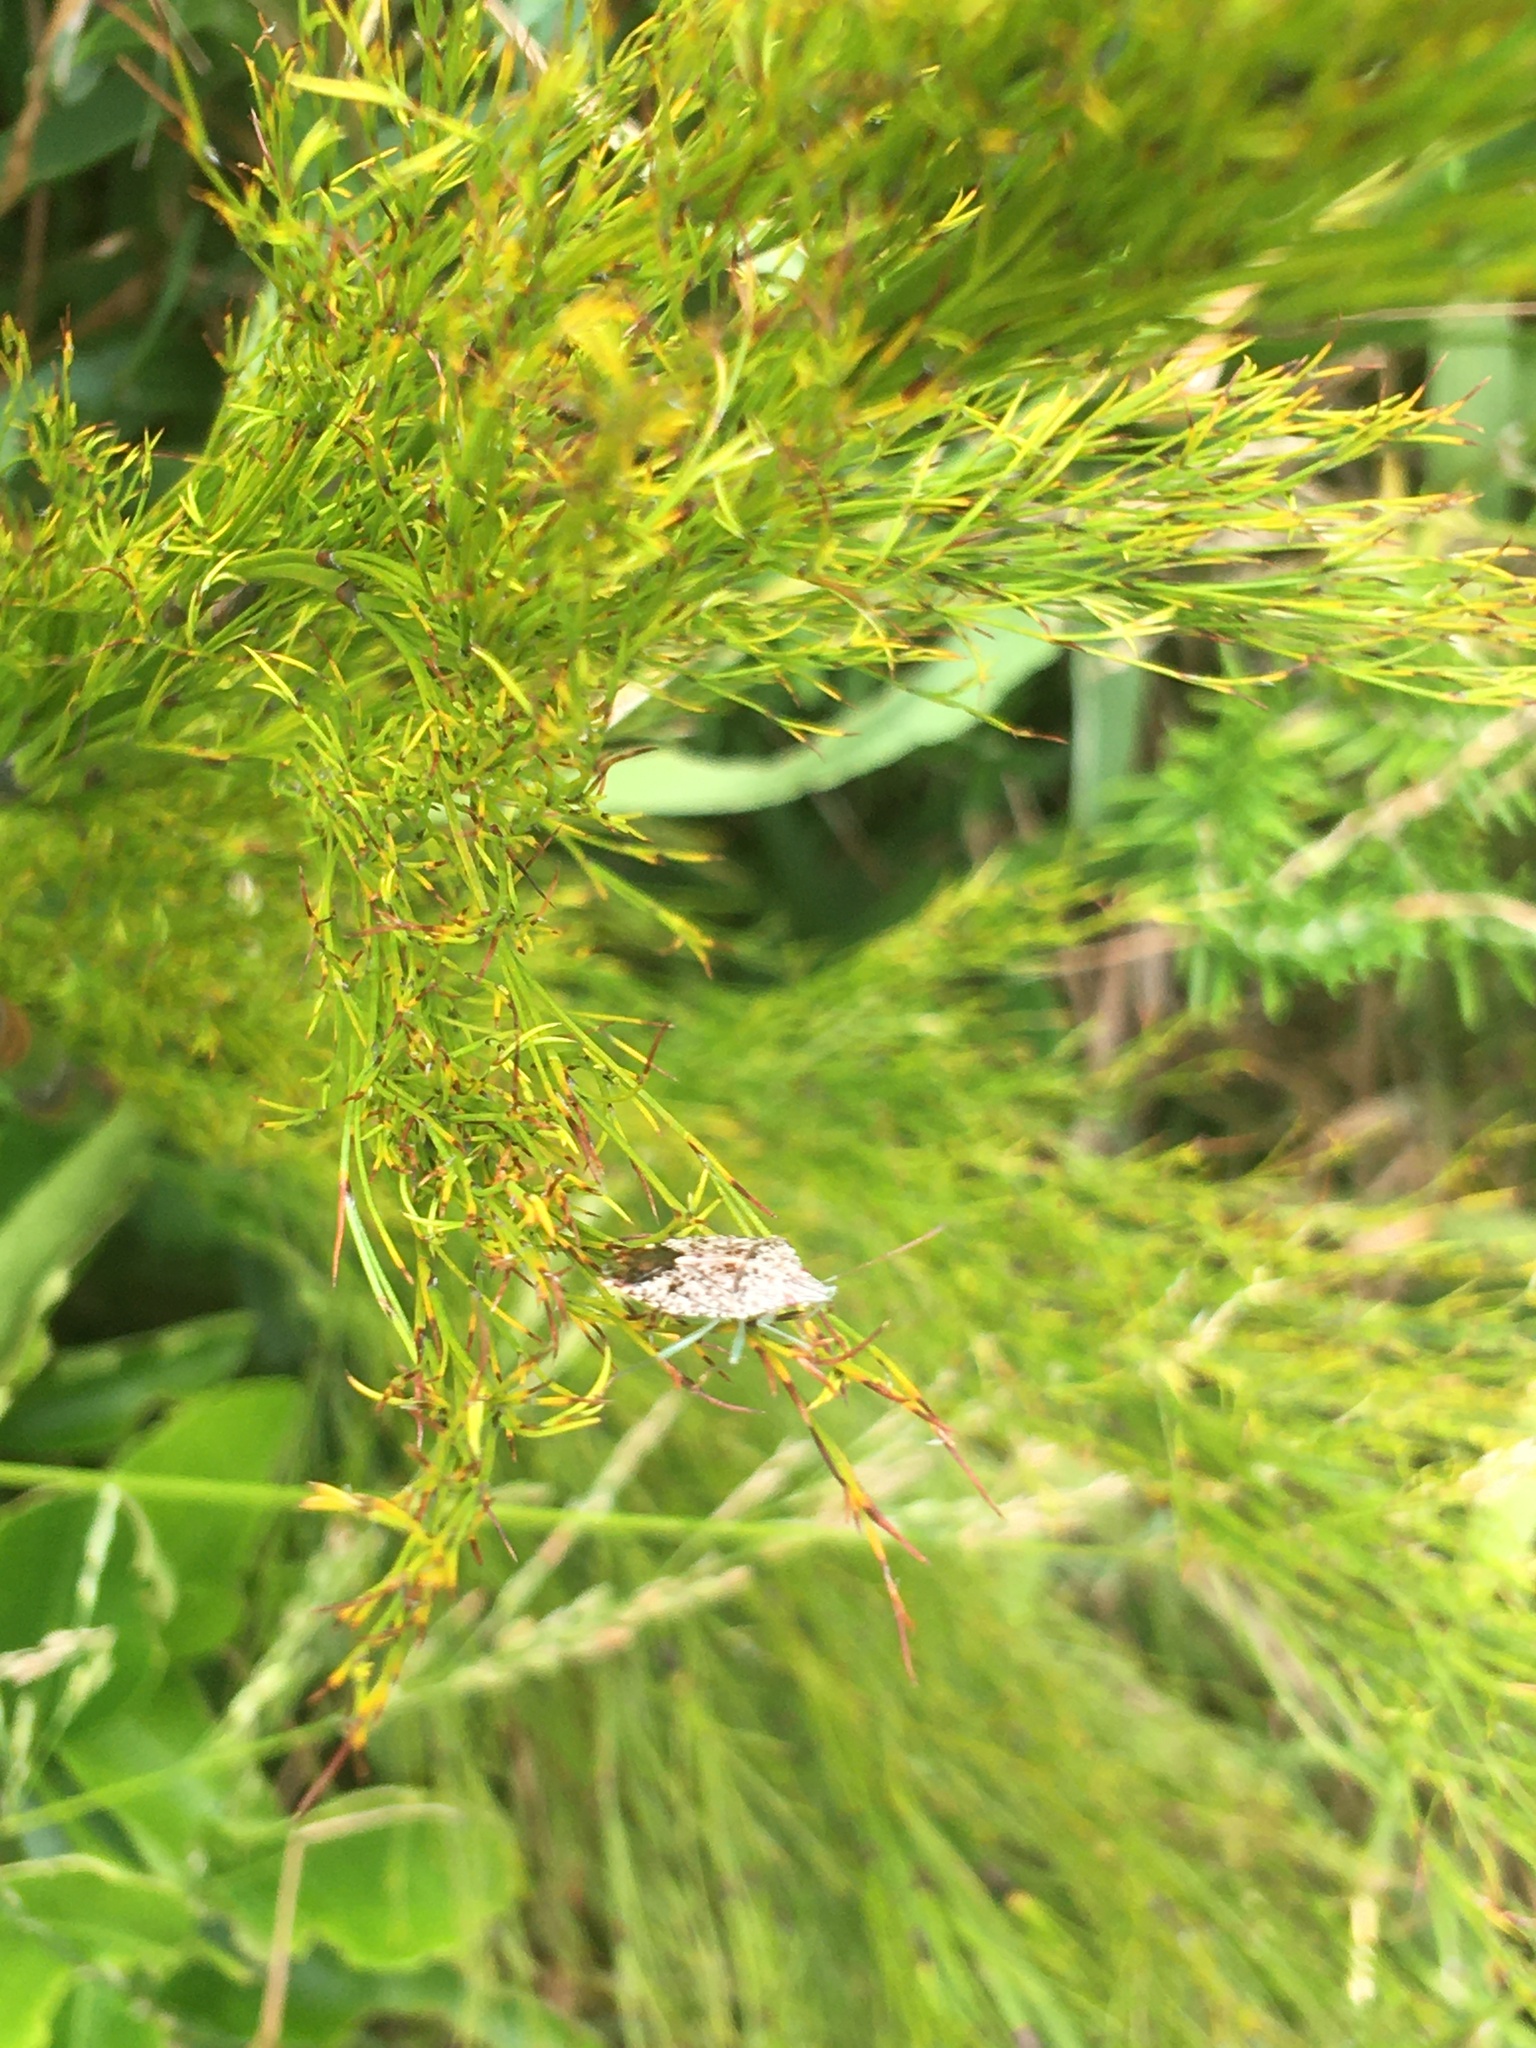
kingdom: Animalia
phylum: Arthropoda
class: Insecta
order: Hemiptera
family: Acanthosomatidae
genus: Xosa
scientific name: Xosa lugubris
